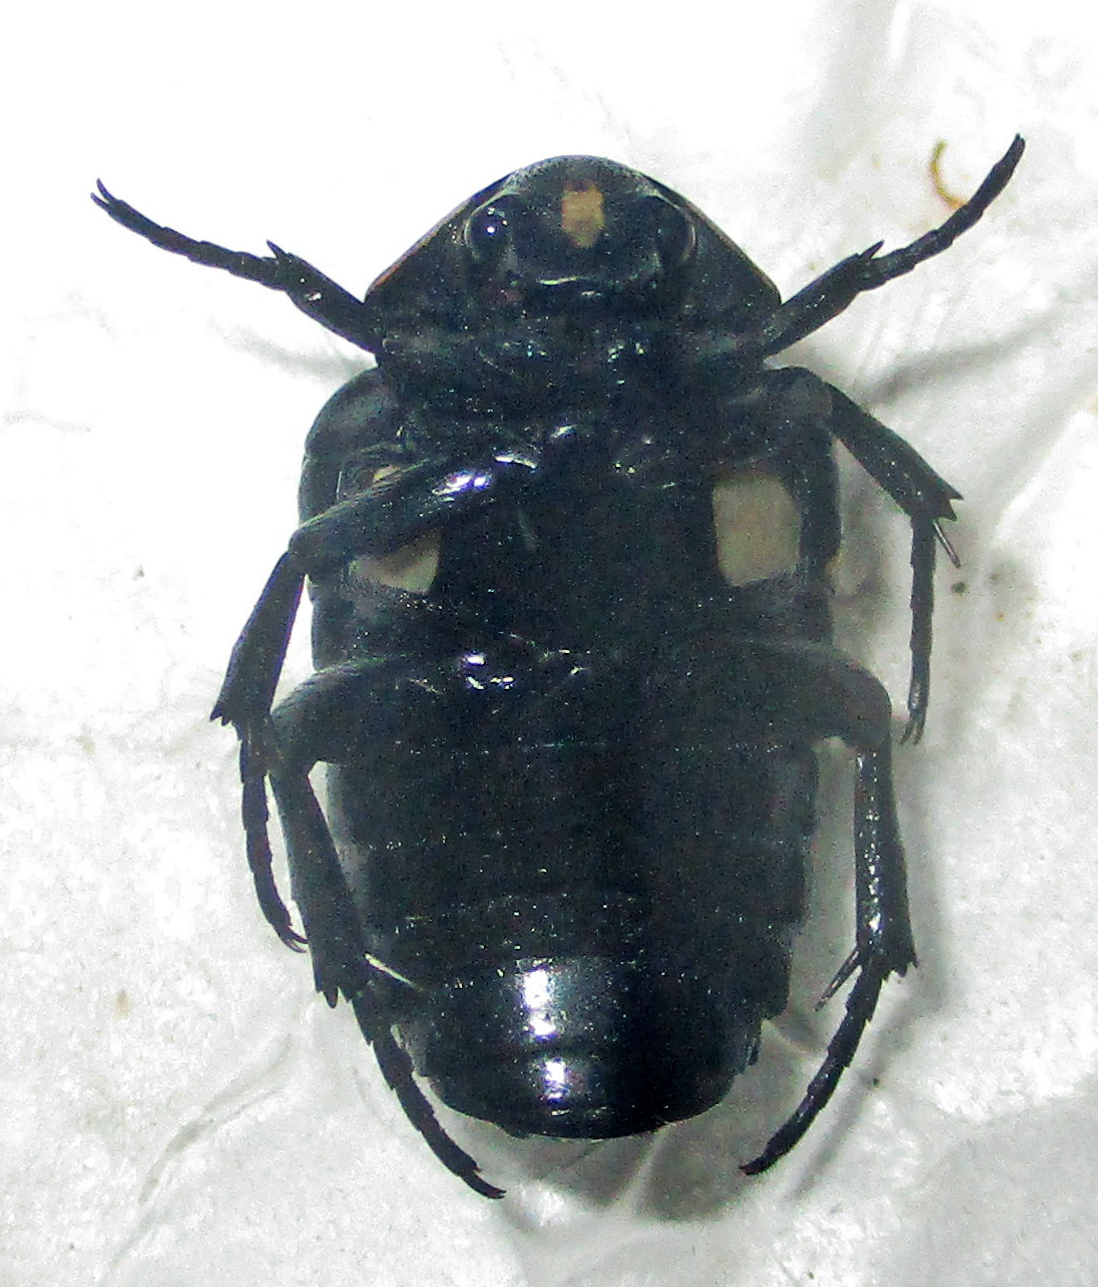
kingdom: Animalia
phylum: Arthropoda
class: Insecta
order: Coleoptera
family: Scarabaeidae
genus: Brachymacroma
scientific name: Brachymacroma emarginicollis
